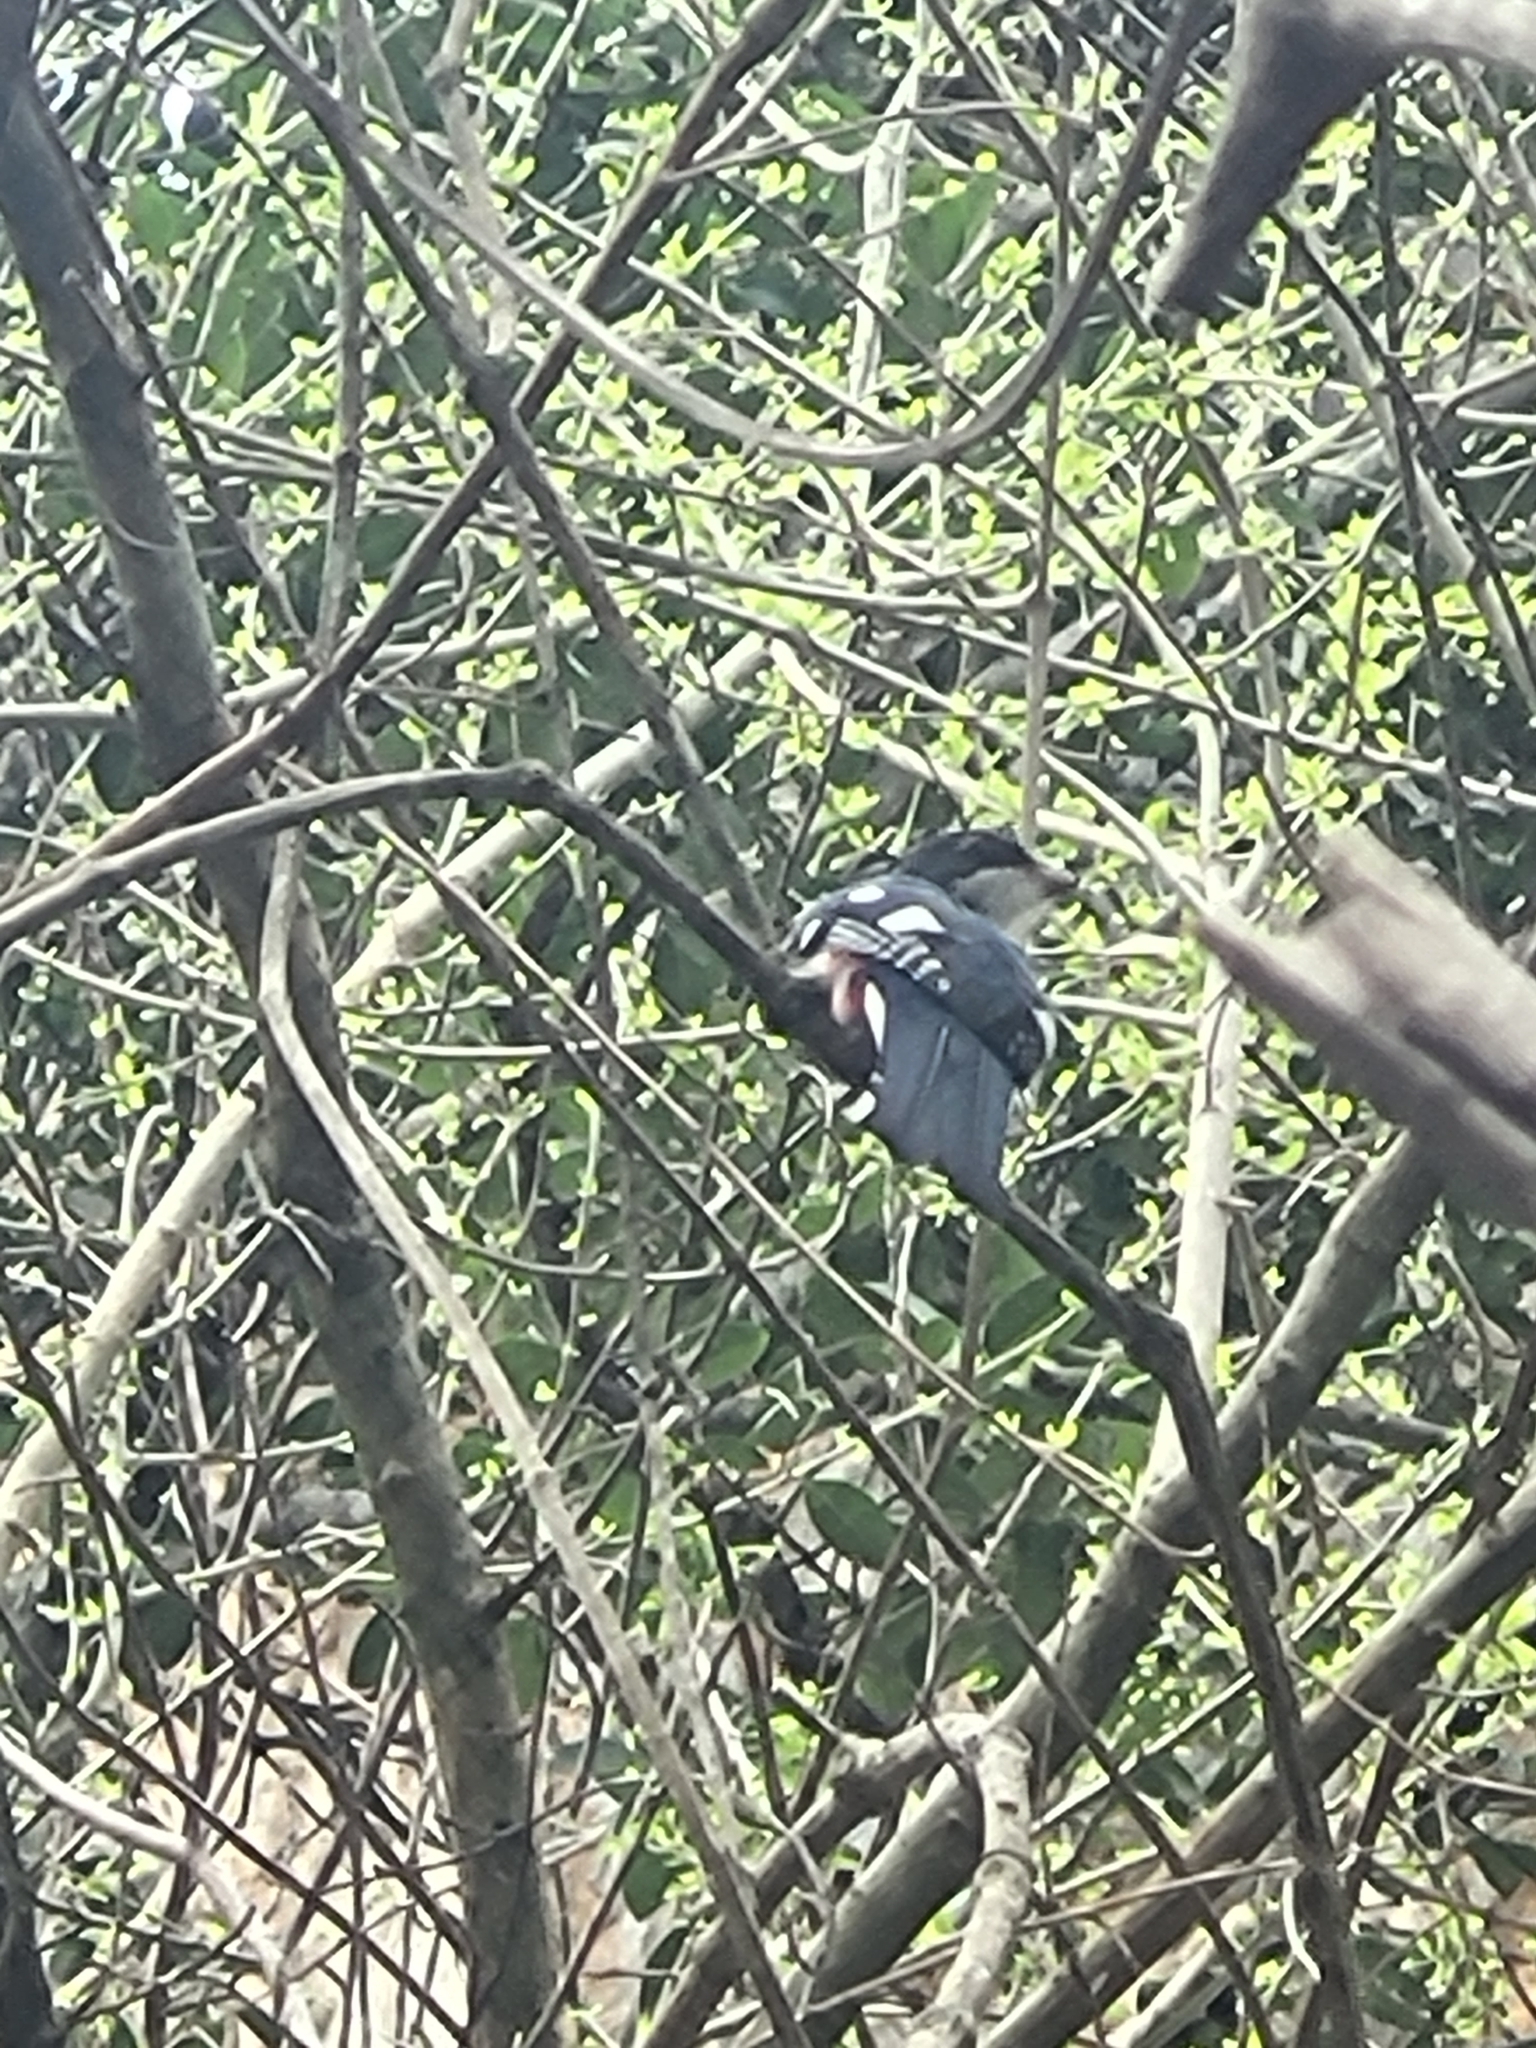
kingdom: Animalia
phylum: Chordata
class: Aves
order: Trogoniformes
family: Trogonidae
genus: Priotelus
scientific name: Priotelus temnurus
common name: Cuban trogon
